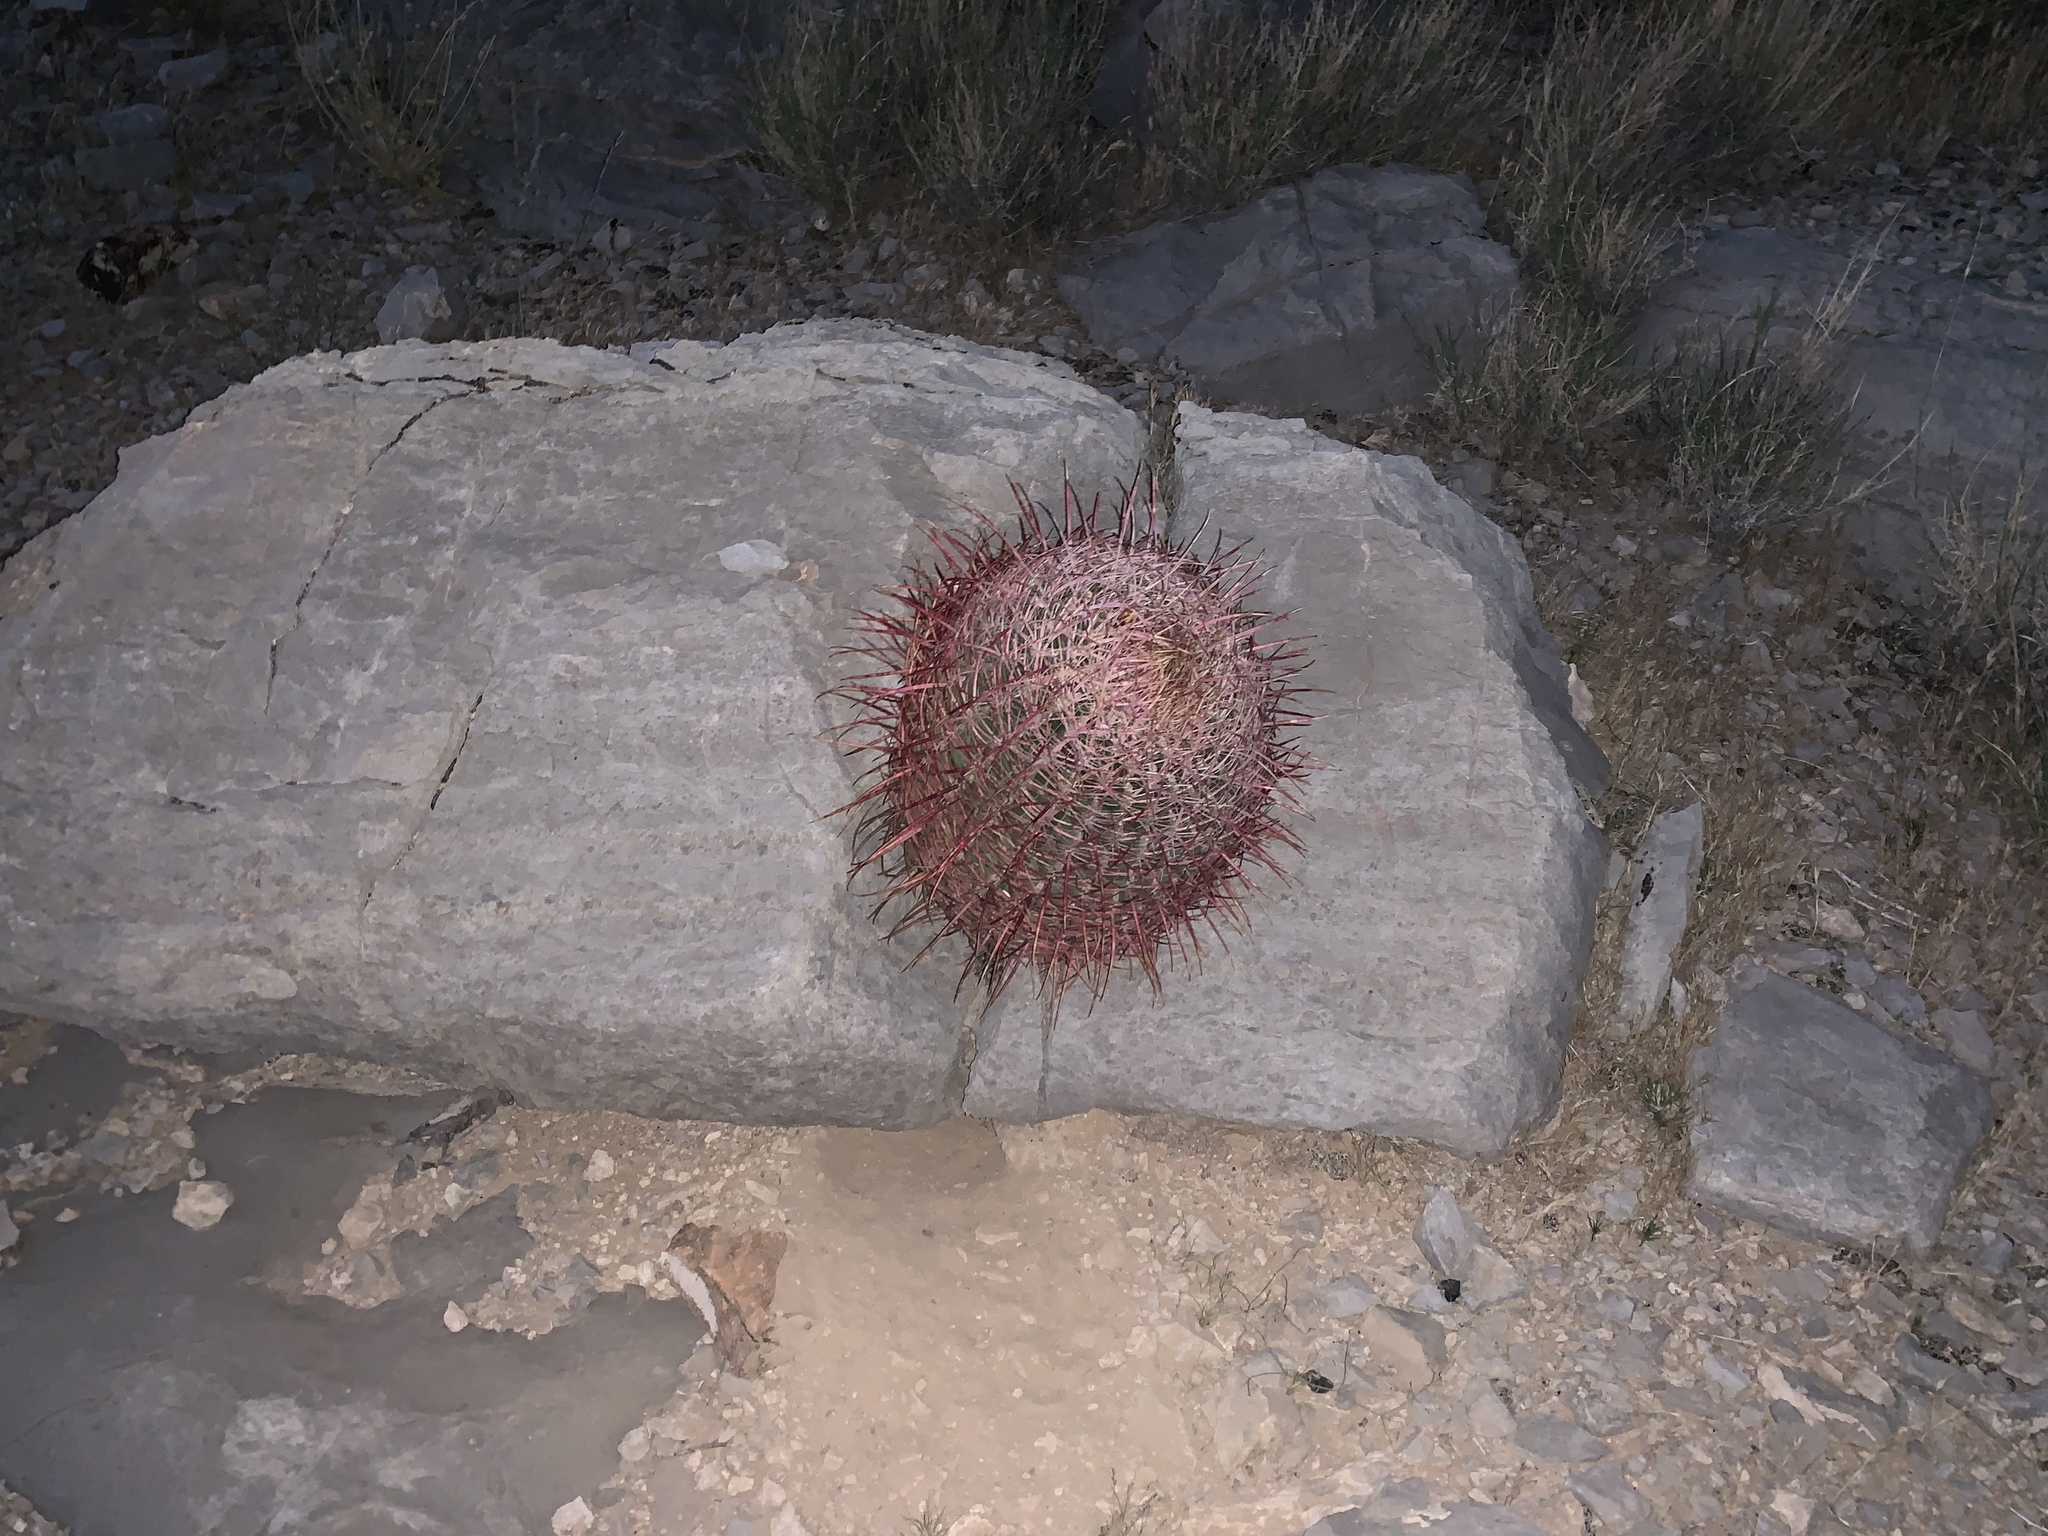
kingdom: Plantae
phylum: Tracheophyta
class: Magnoliopsida
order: Caryophyllales
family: Cactaceae
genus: Ferocactus
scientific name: Ferocactus cylindraceus
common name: California barrel cactus
